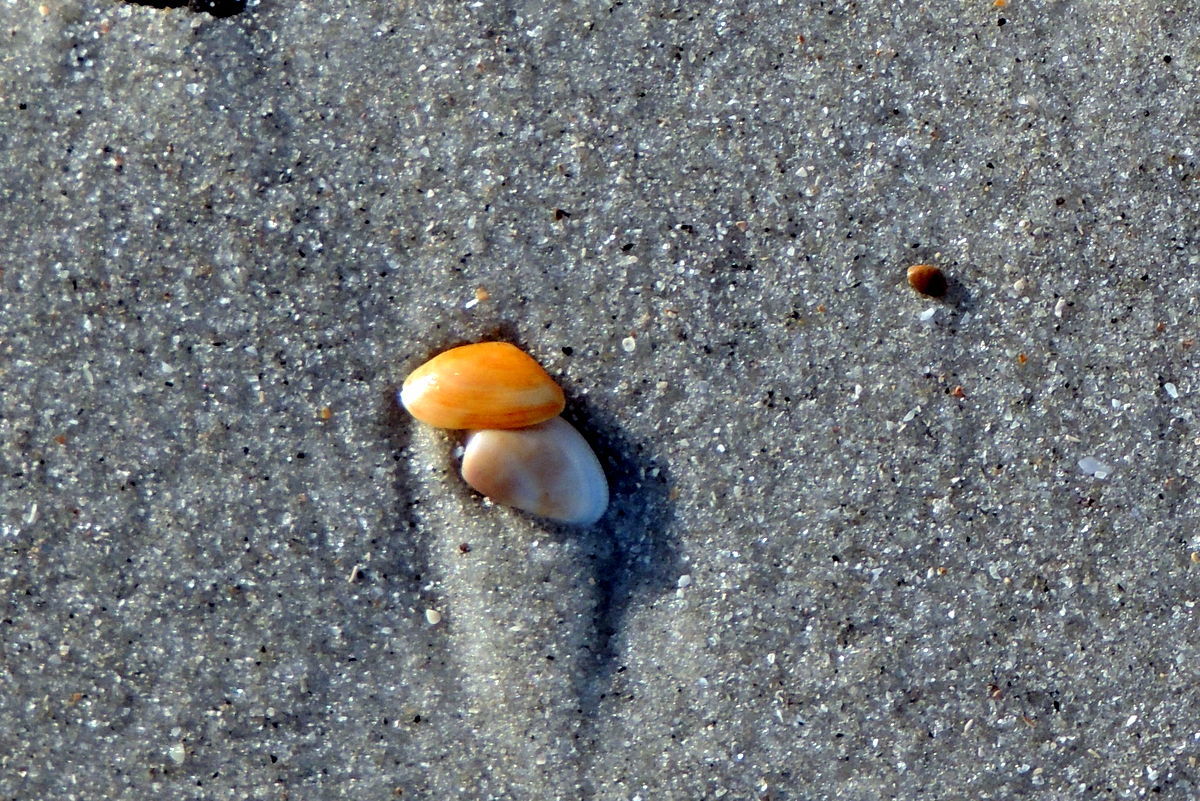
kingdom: Animalia
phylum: Mollusca
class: Bivalvia
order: Cardiida
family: Donacidae
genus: Donax
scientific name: Donax variabilis
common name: Butterfly shell
